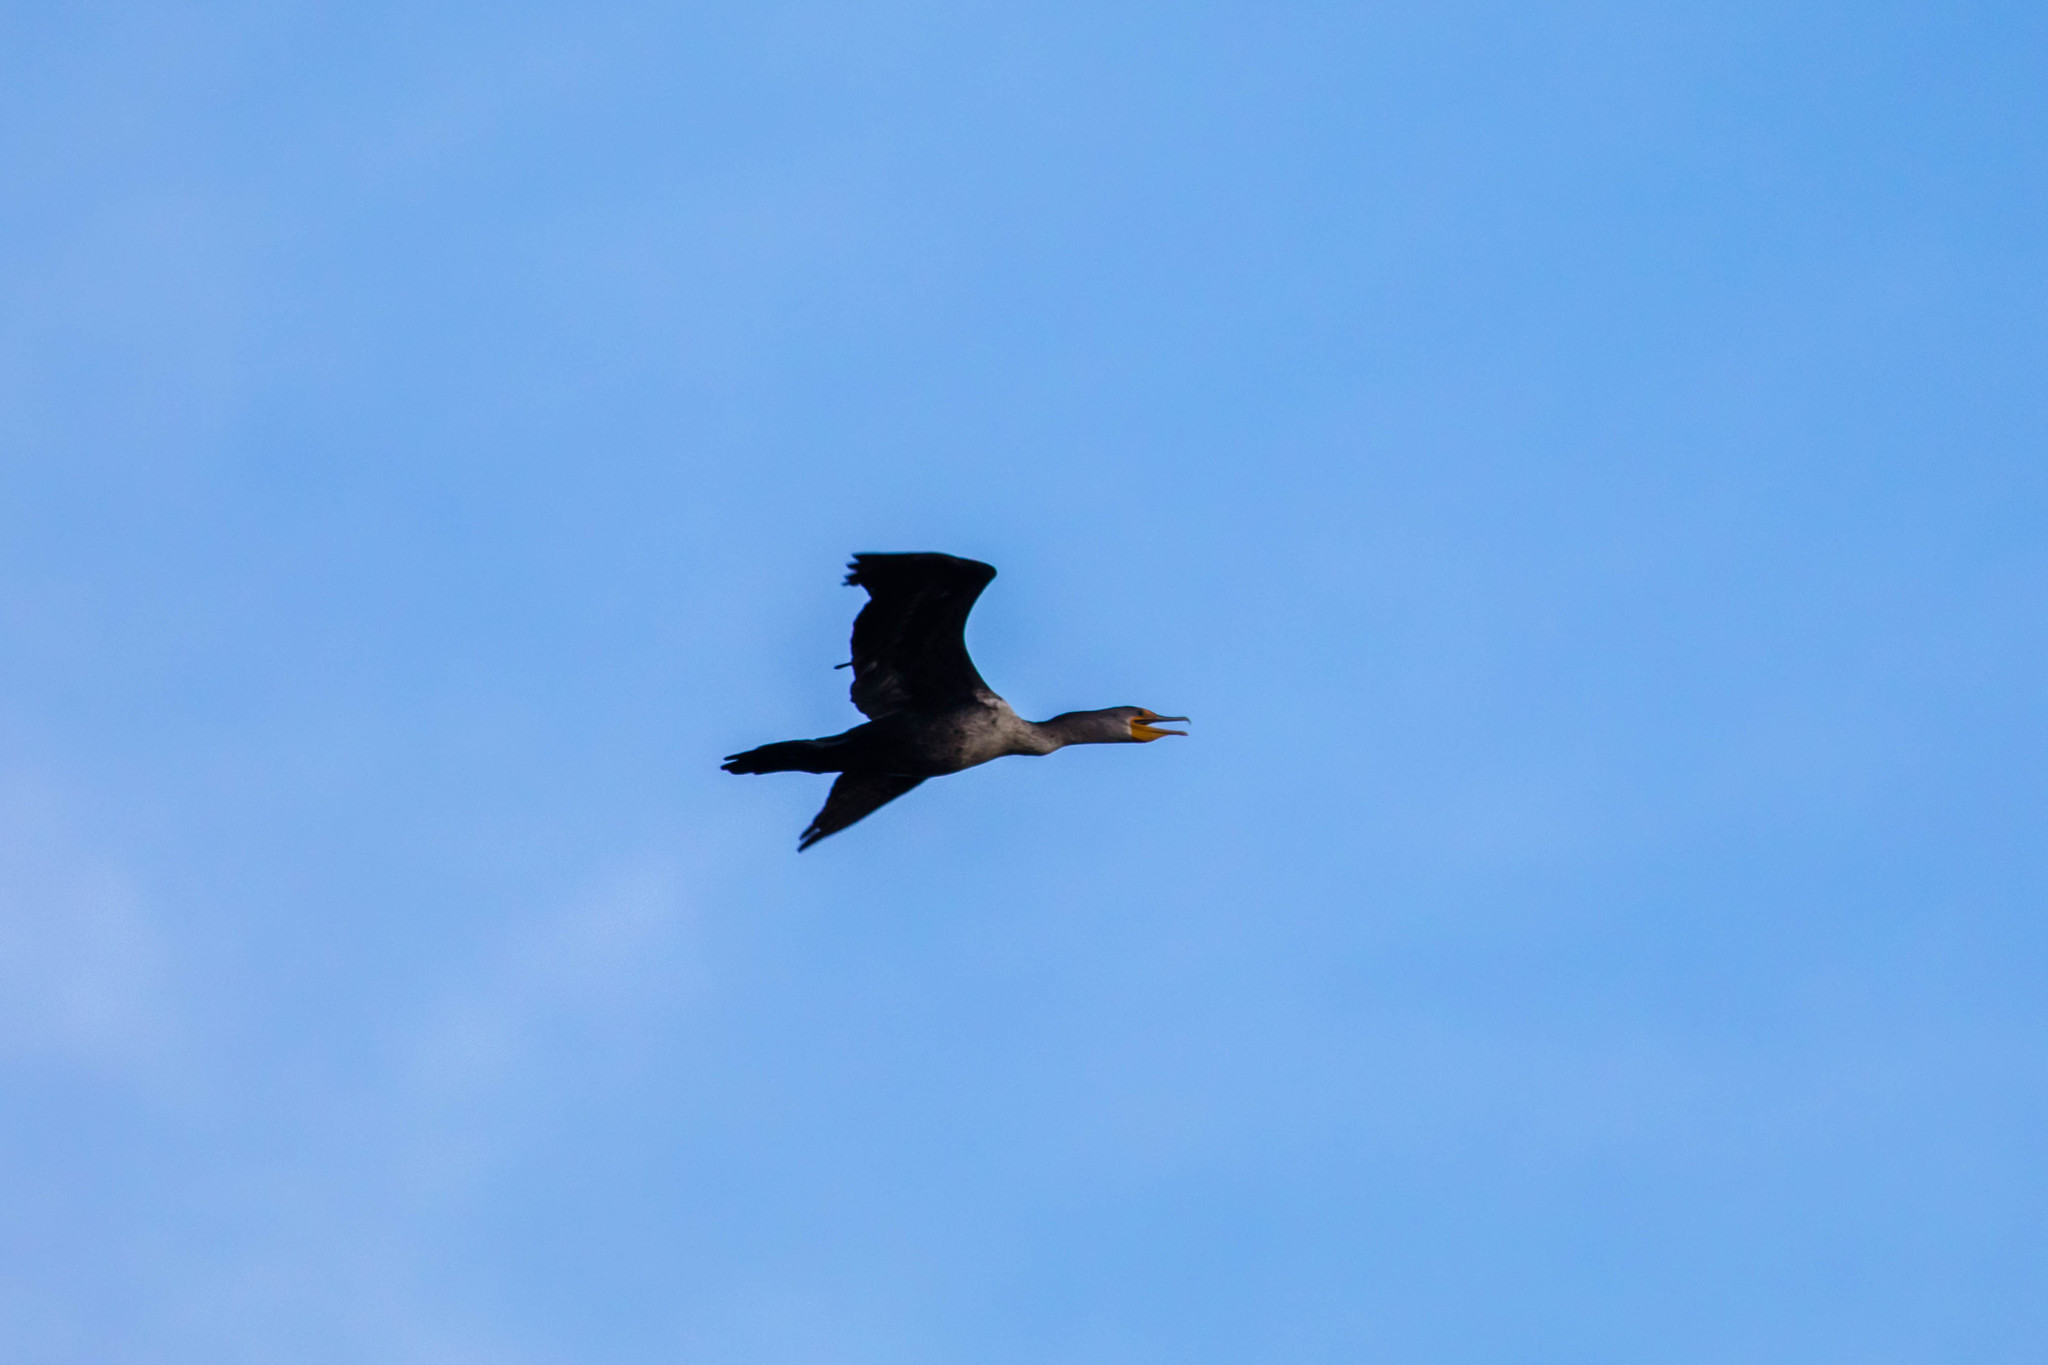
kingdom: Animalia
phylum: Chordata
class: Aves
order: Suliformes
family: Phalacrocoracidae
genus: Phalacrocorax
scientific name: Phalacrocorax auritus
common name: Double-crested cormorant
